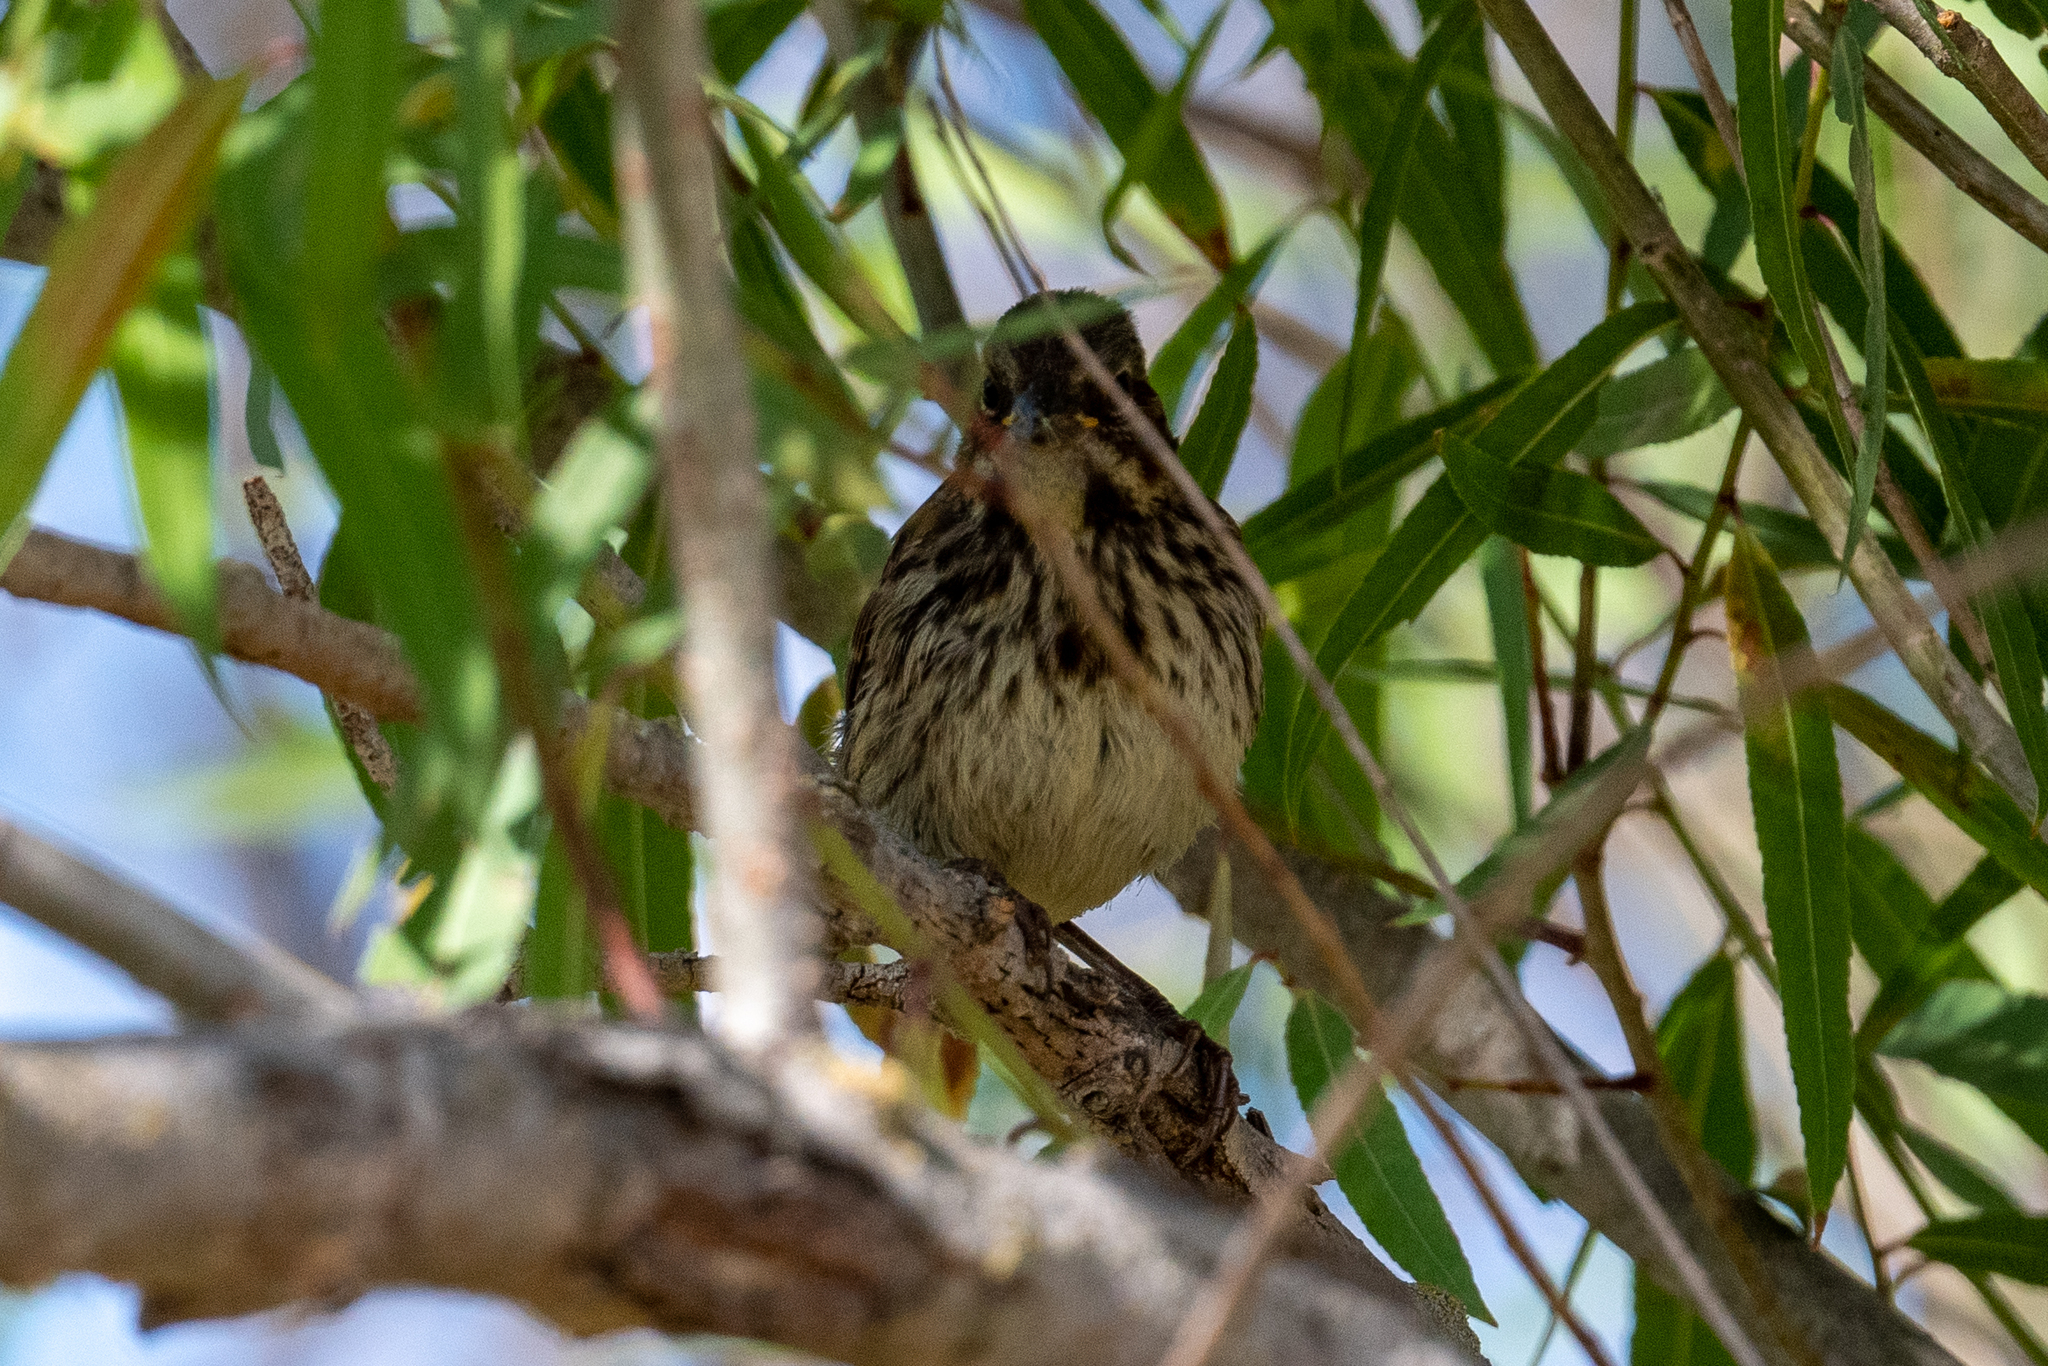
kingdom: Animalia
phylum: Chordata
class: Aves
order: Passeriformes
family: Passerellidae
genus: Melospiza
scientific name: Melospiza melodia
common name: Song sparrow
